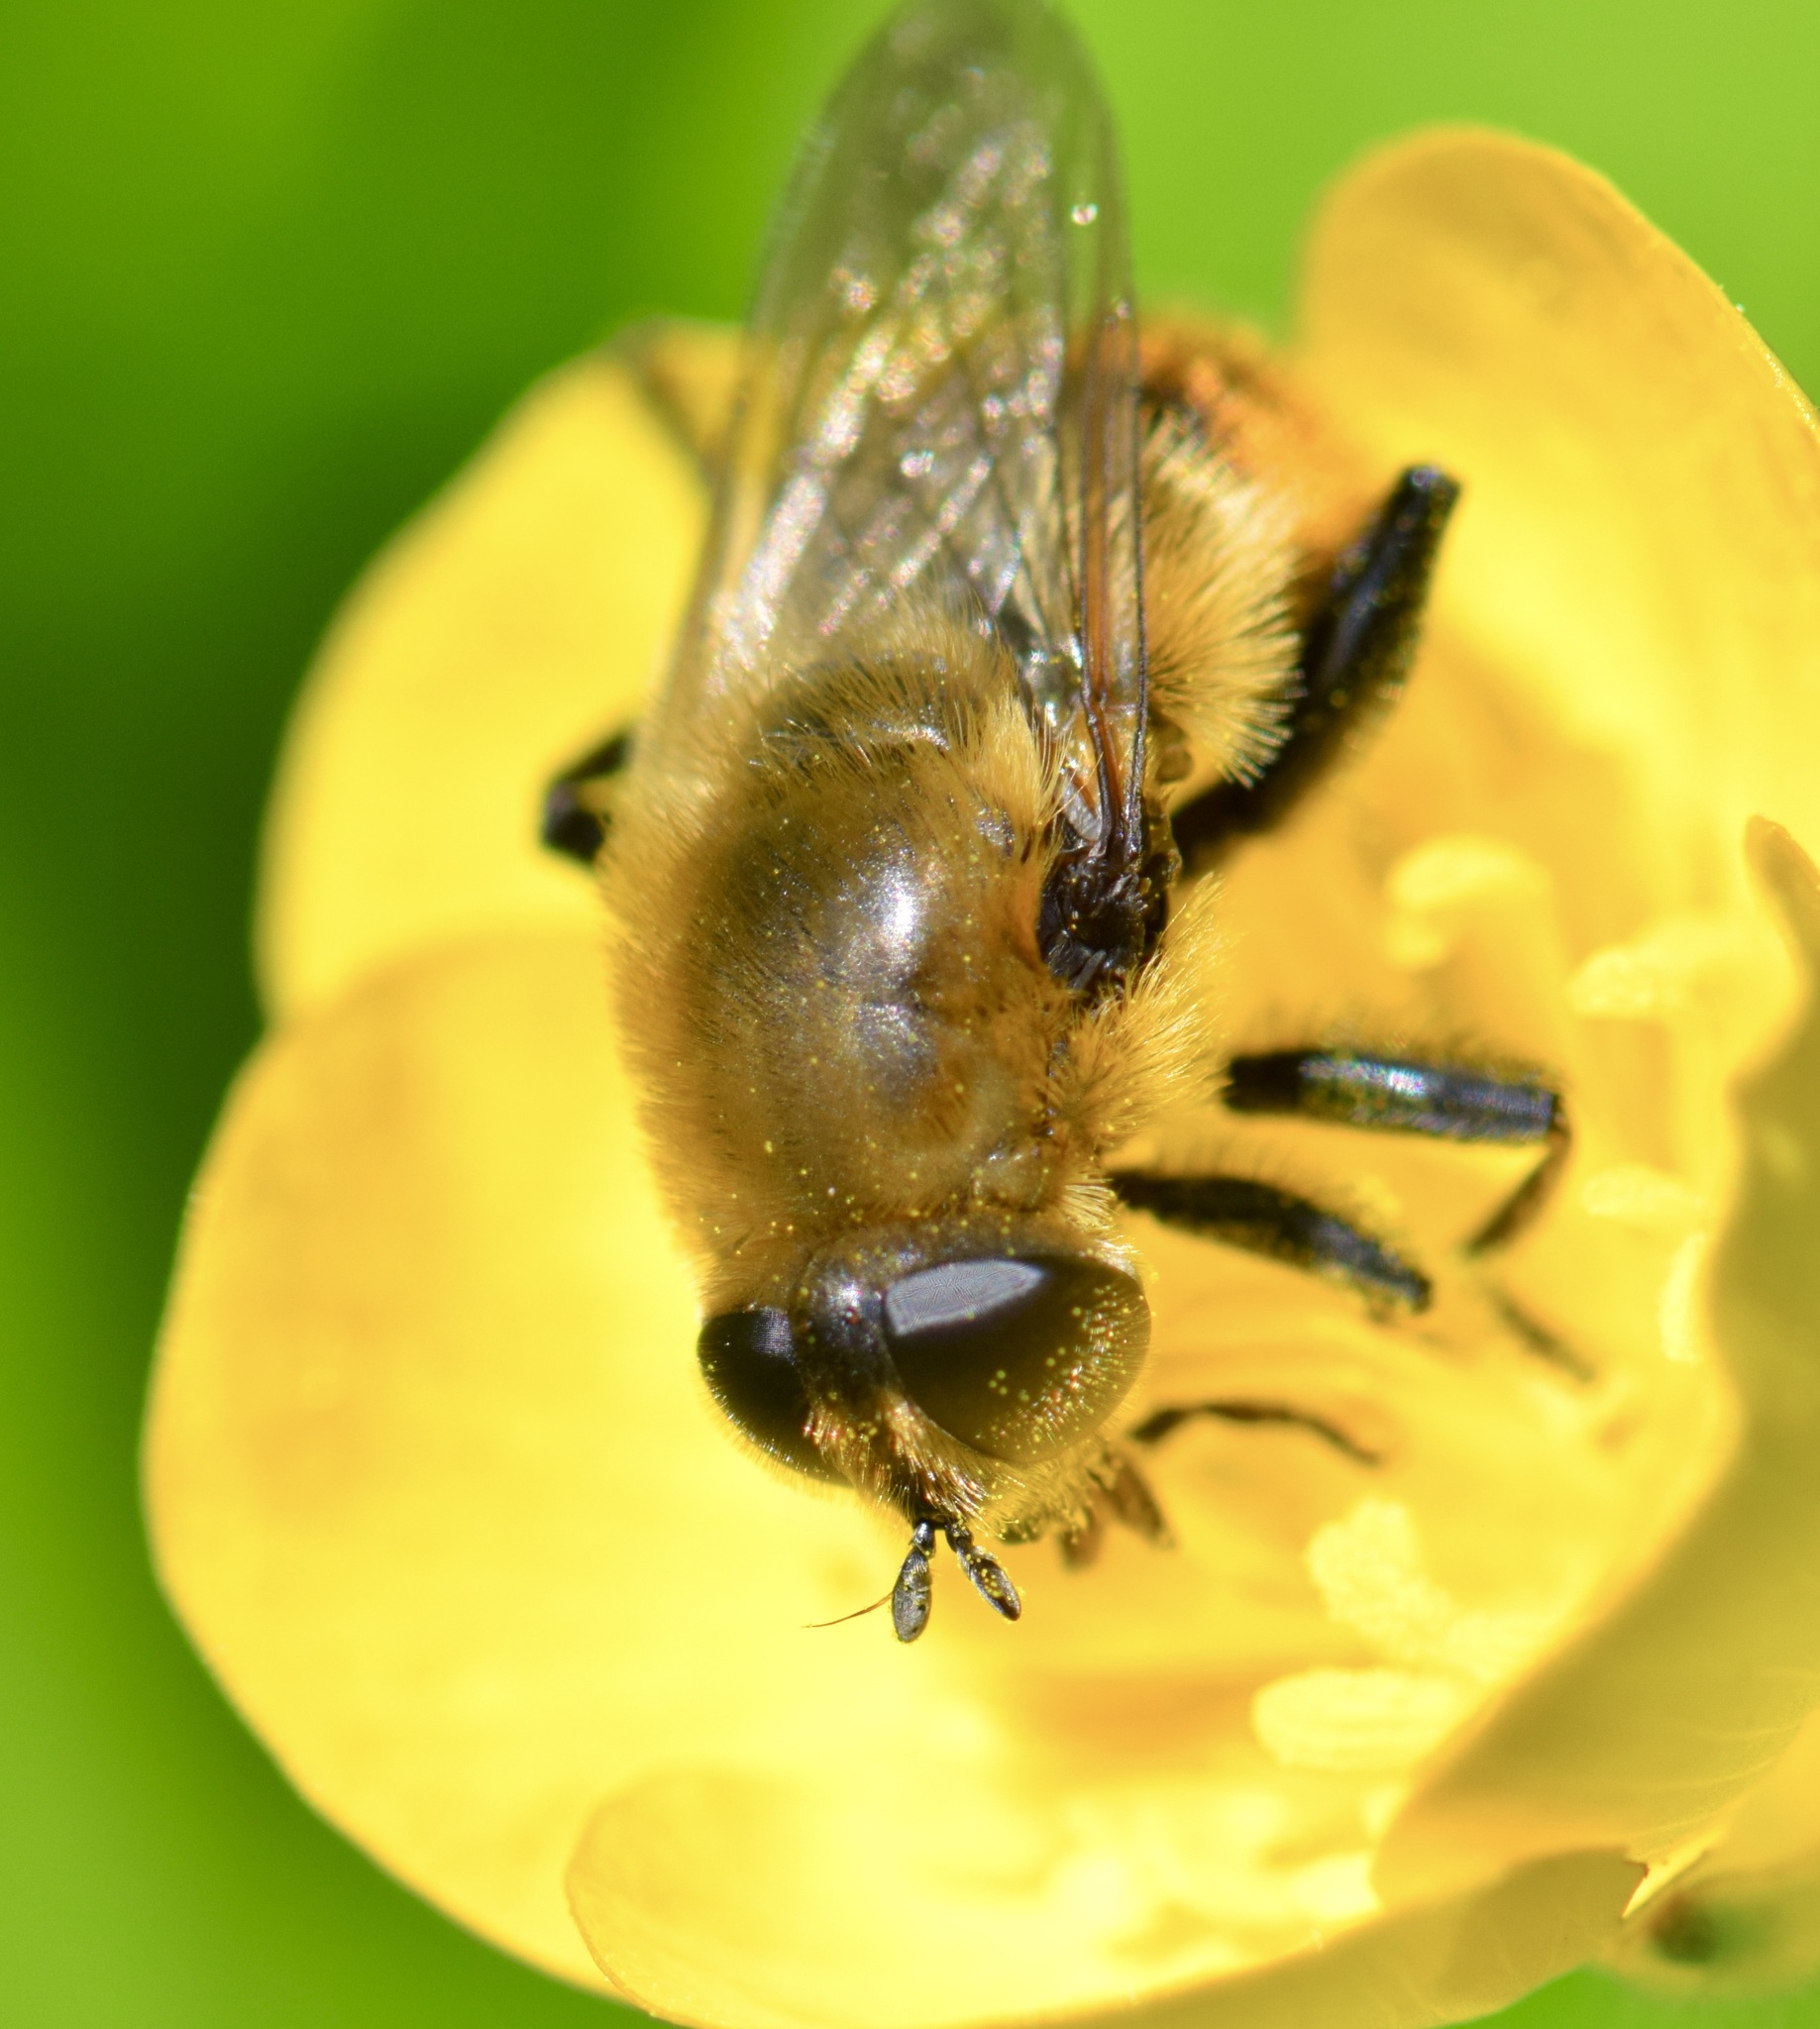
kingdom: Animalia
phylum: Arthropoda
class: Insecta
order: Diptera
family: Syrphidae
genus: Merodon
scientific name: Merodon equestris
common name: Greater bulb-fly
